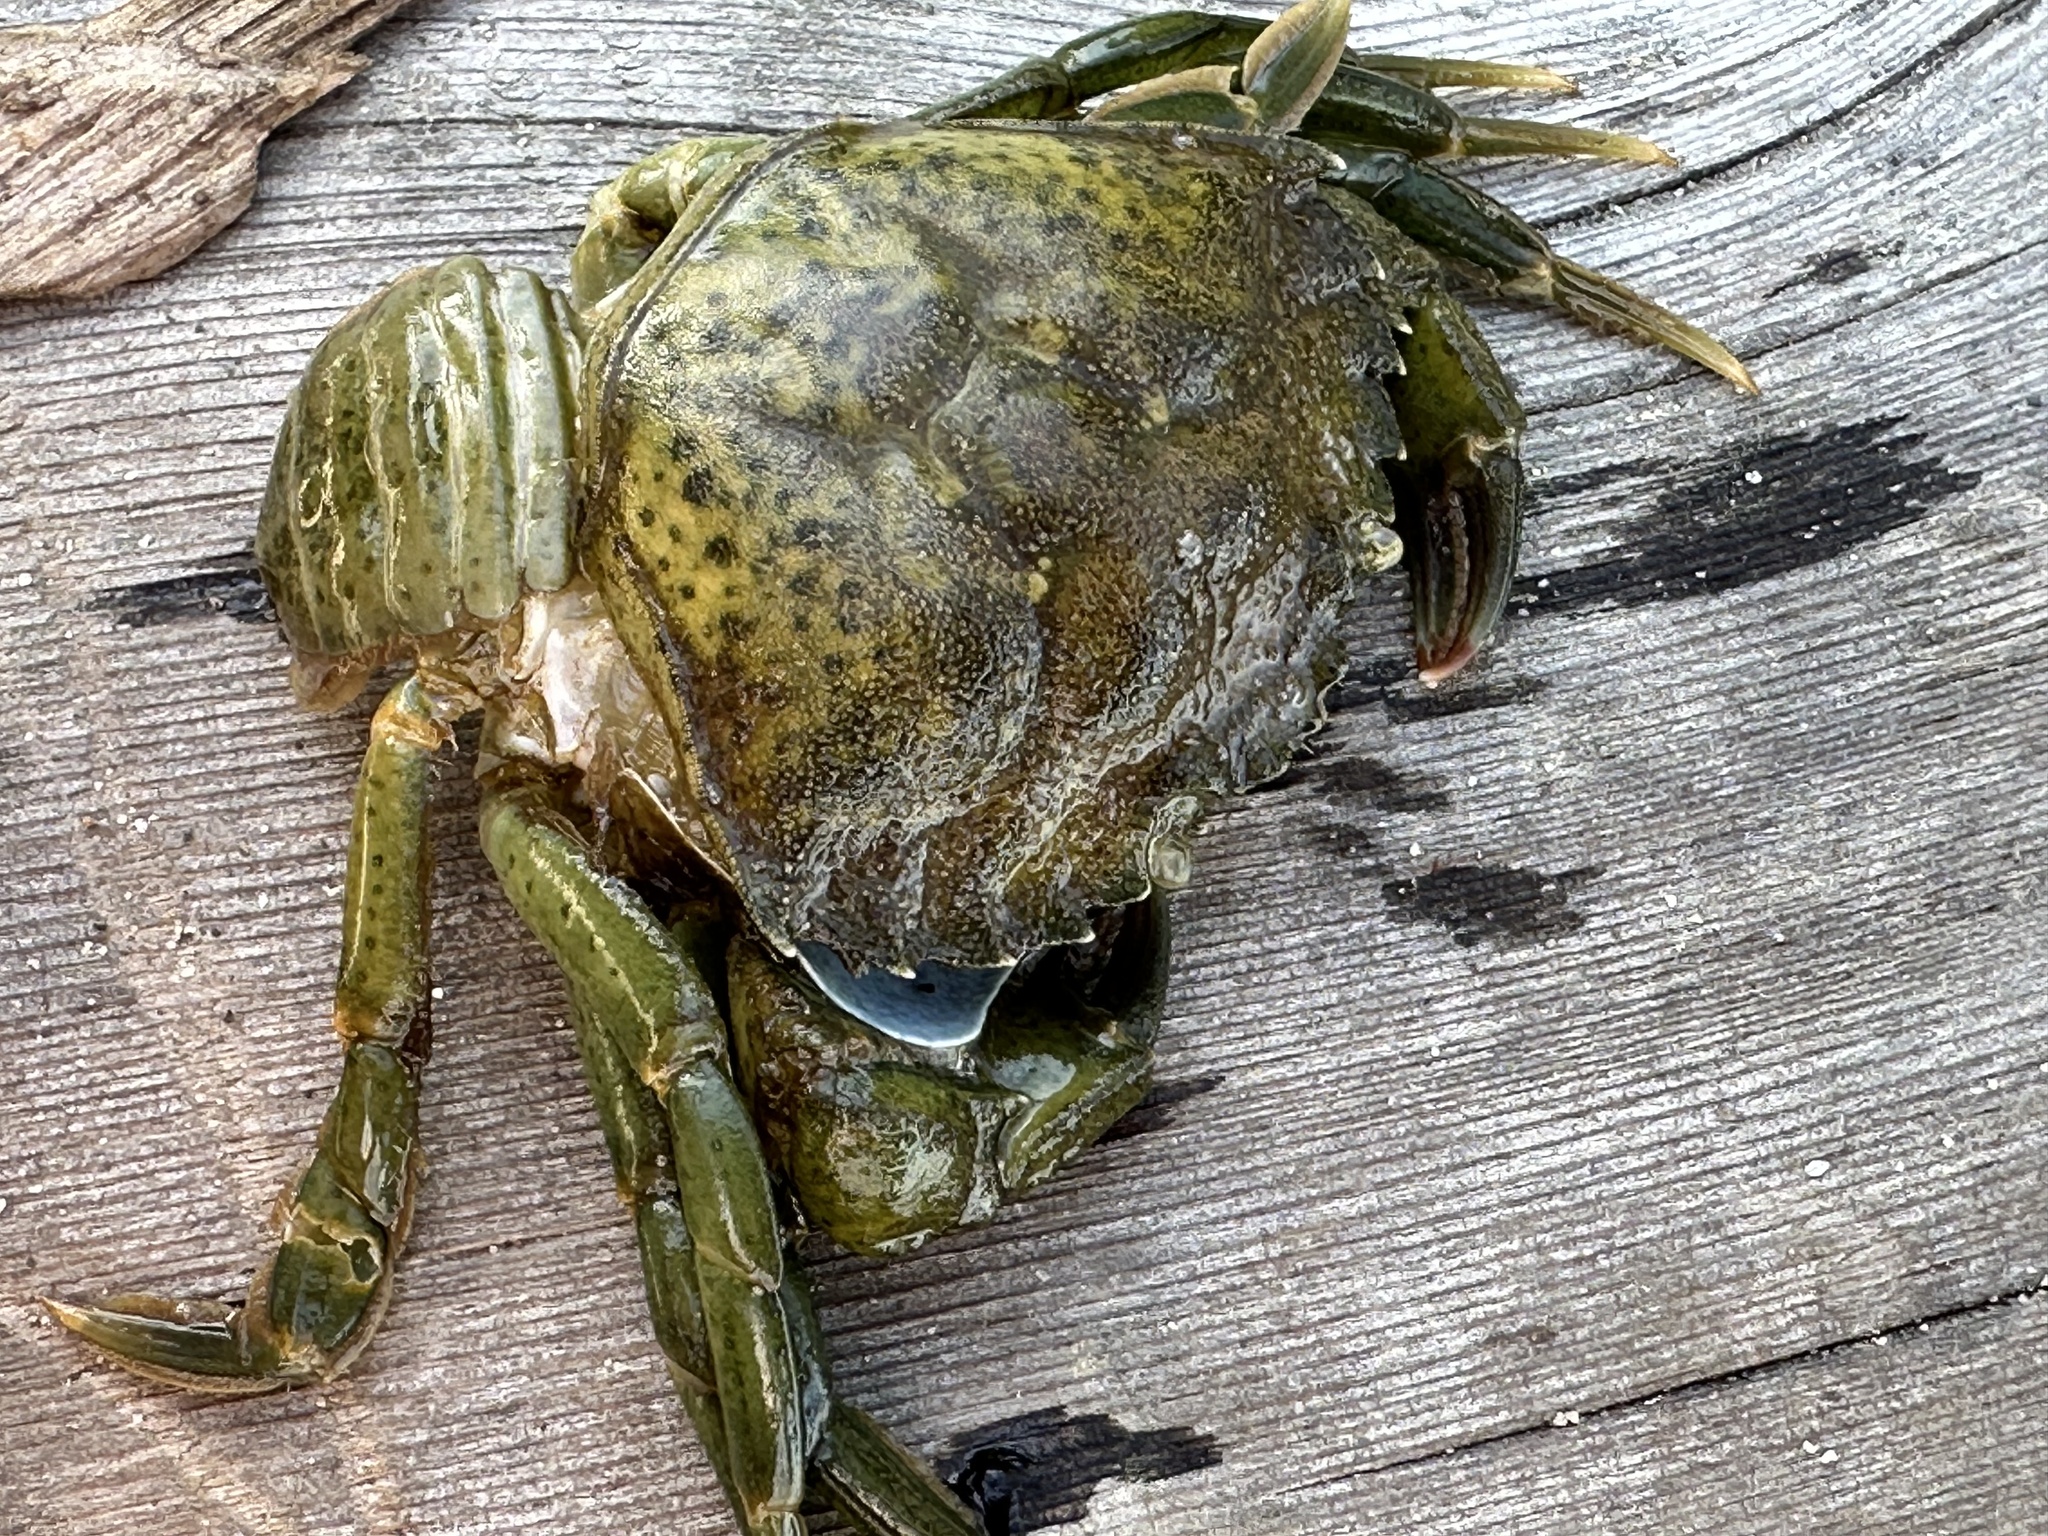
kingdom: Animalia
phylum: Arthropoda
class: Malacostraca
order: Decapoda
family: Carcinidae
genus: Carcinus
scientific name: Carcinus maenas
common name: European green crab
